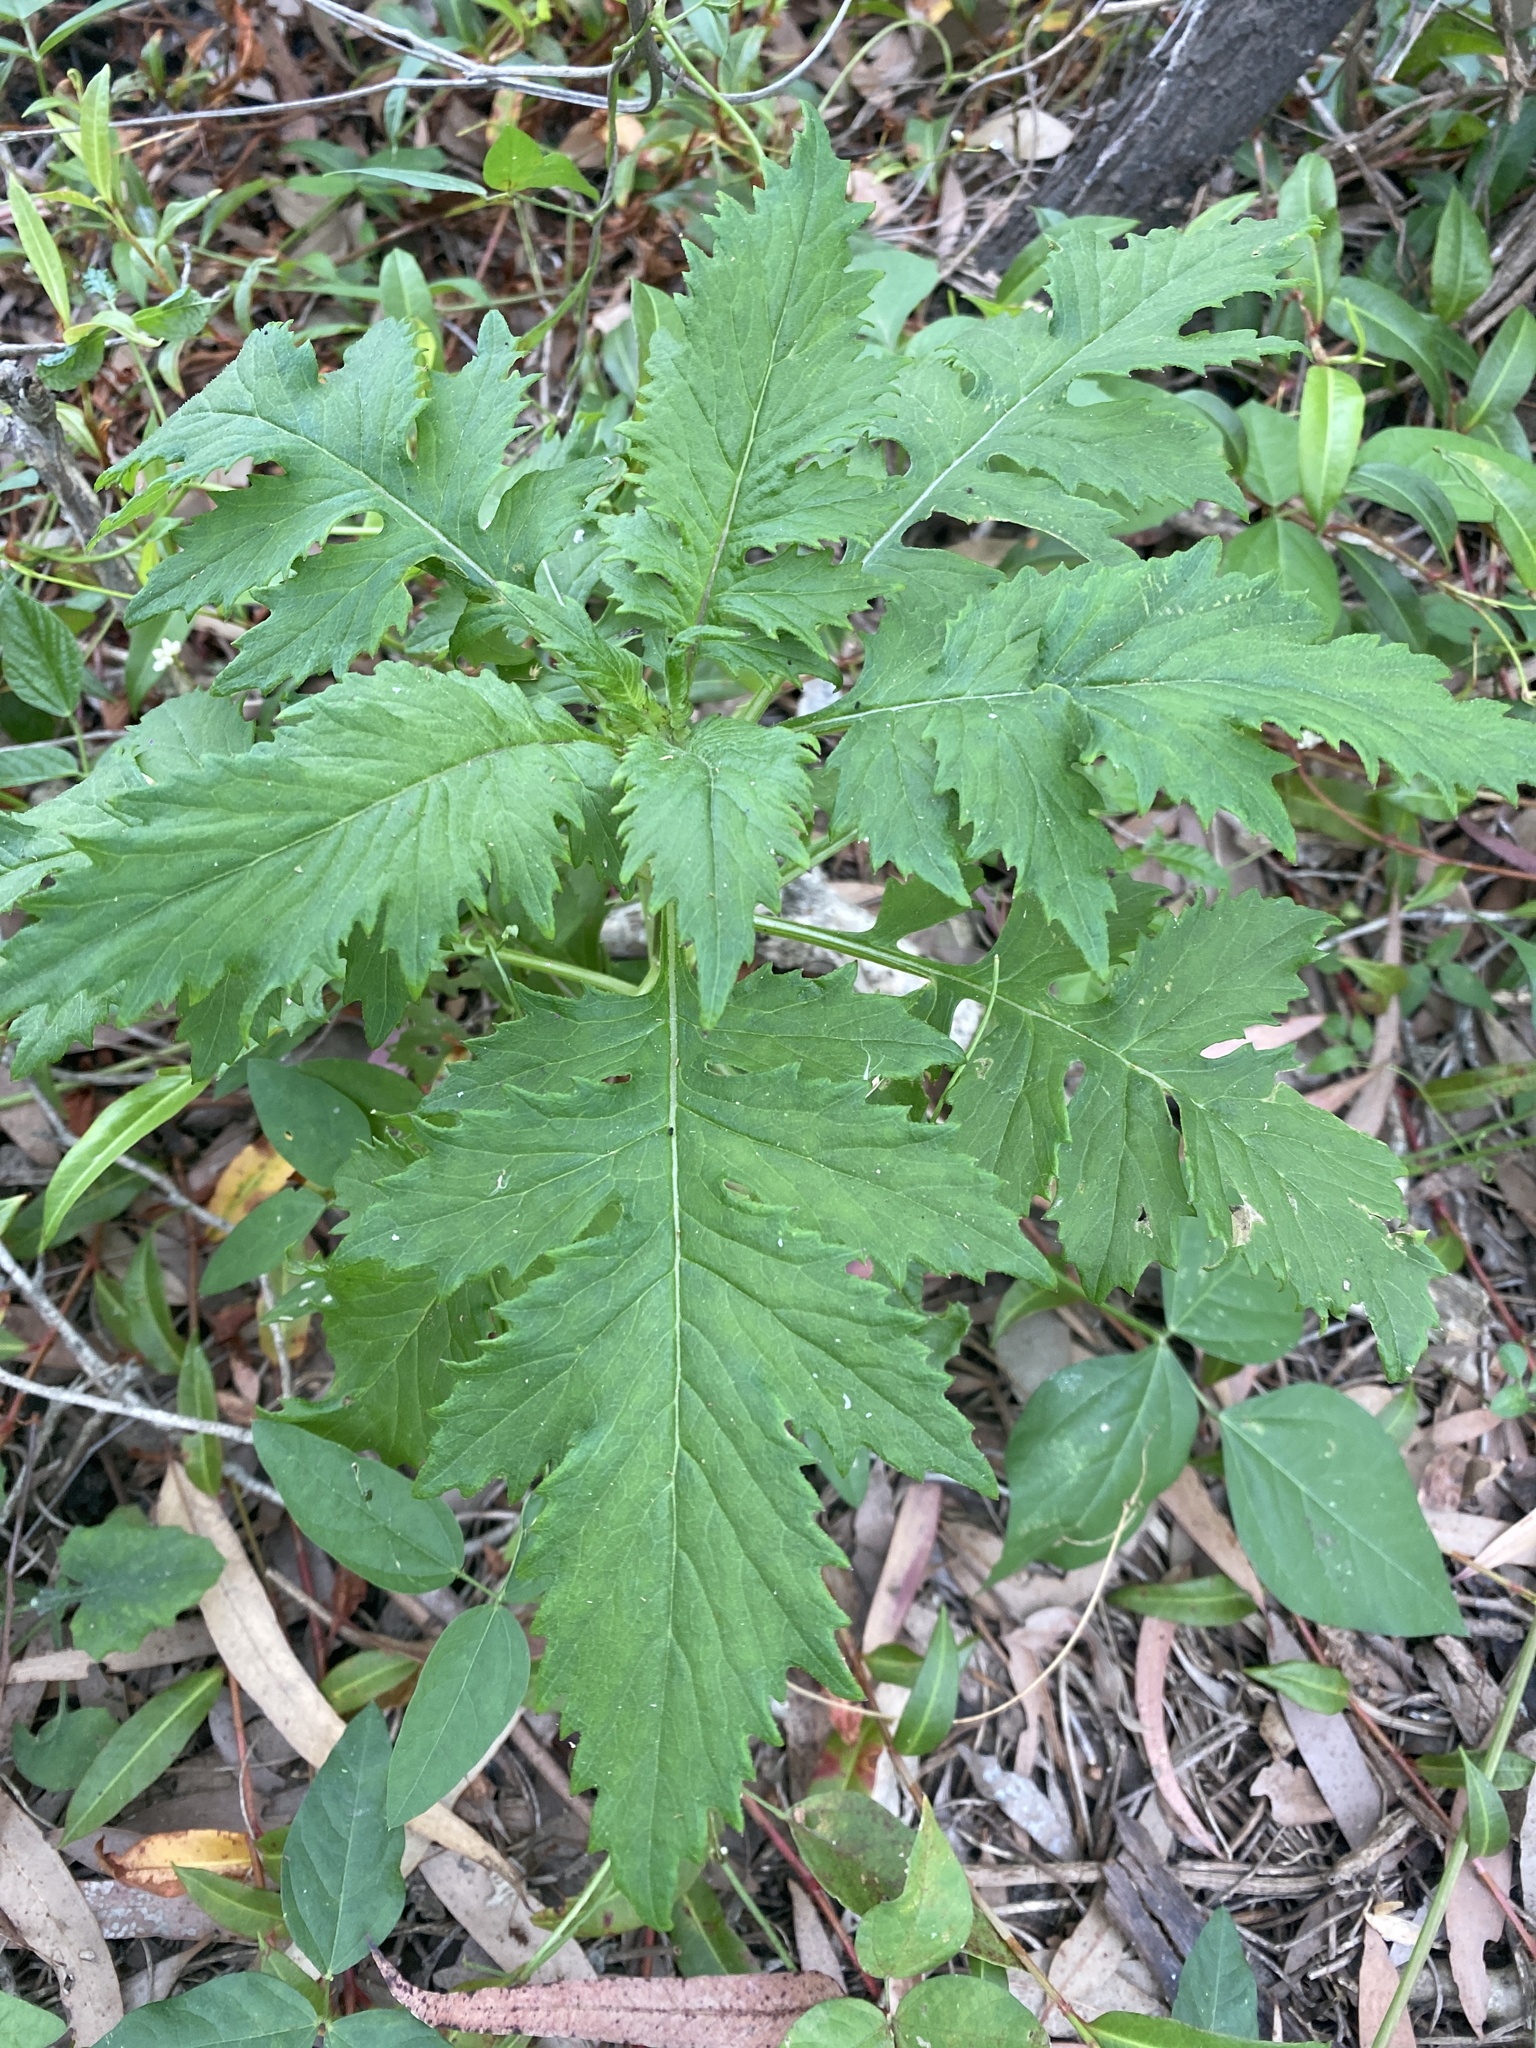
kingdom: Plantae
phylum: Tracheophyta
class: Magnoliopsida
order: Asterales
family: Asteraceae
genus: Erechtites
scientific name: Erechtites valerianifolius
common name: Tropical burnweed
